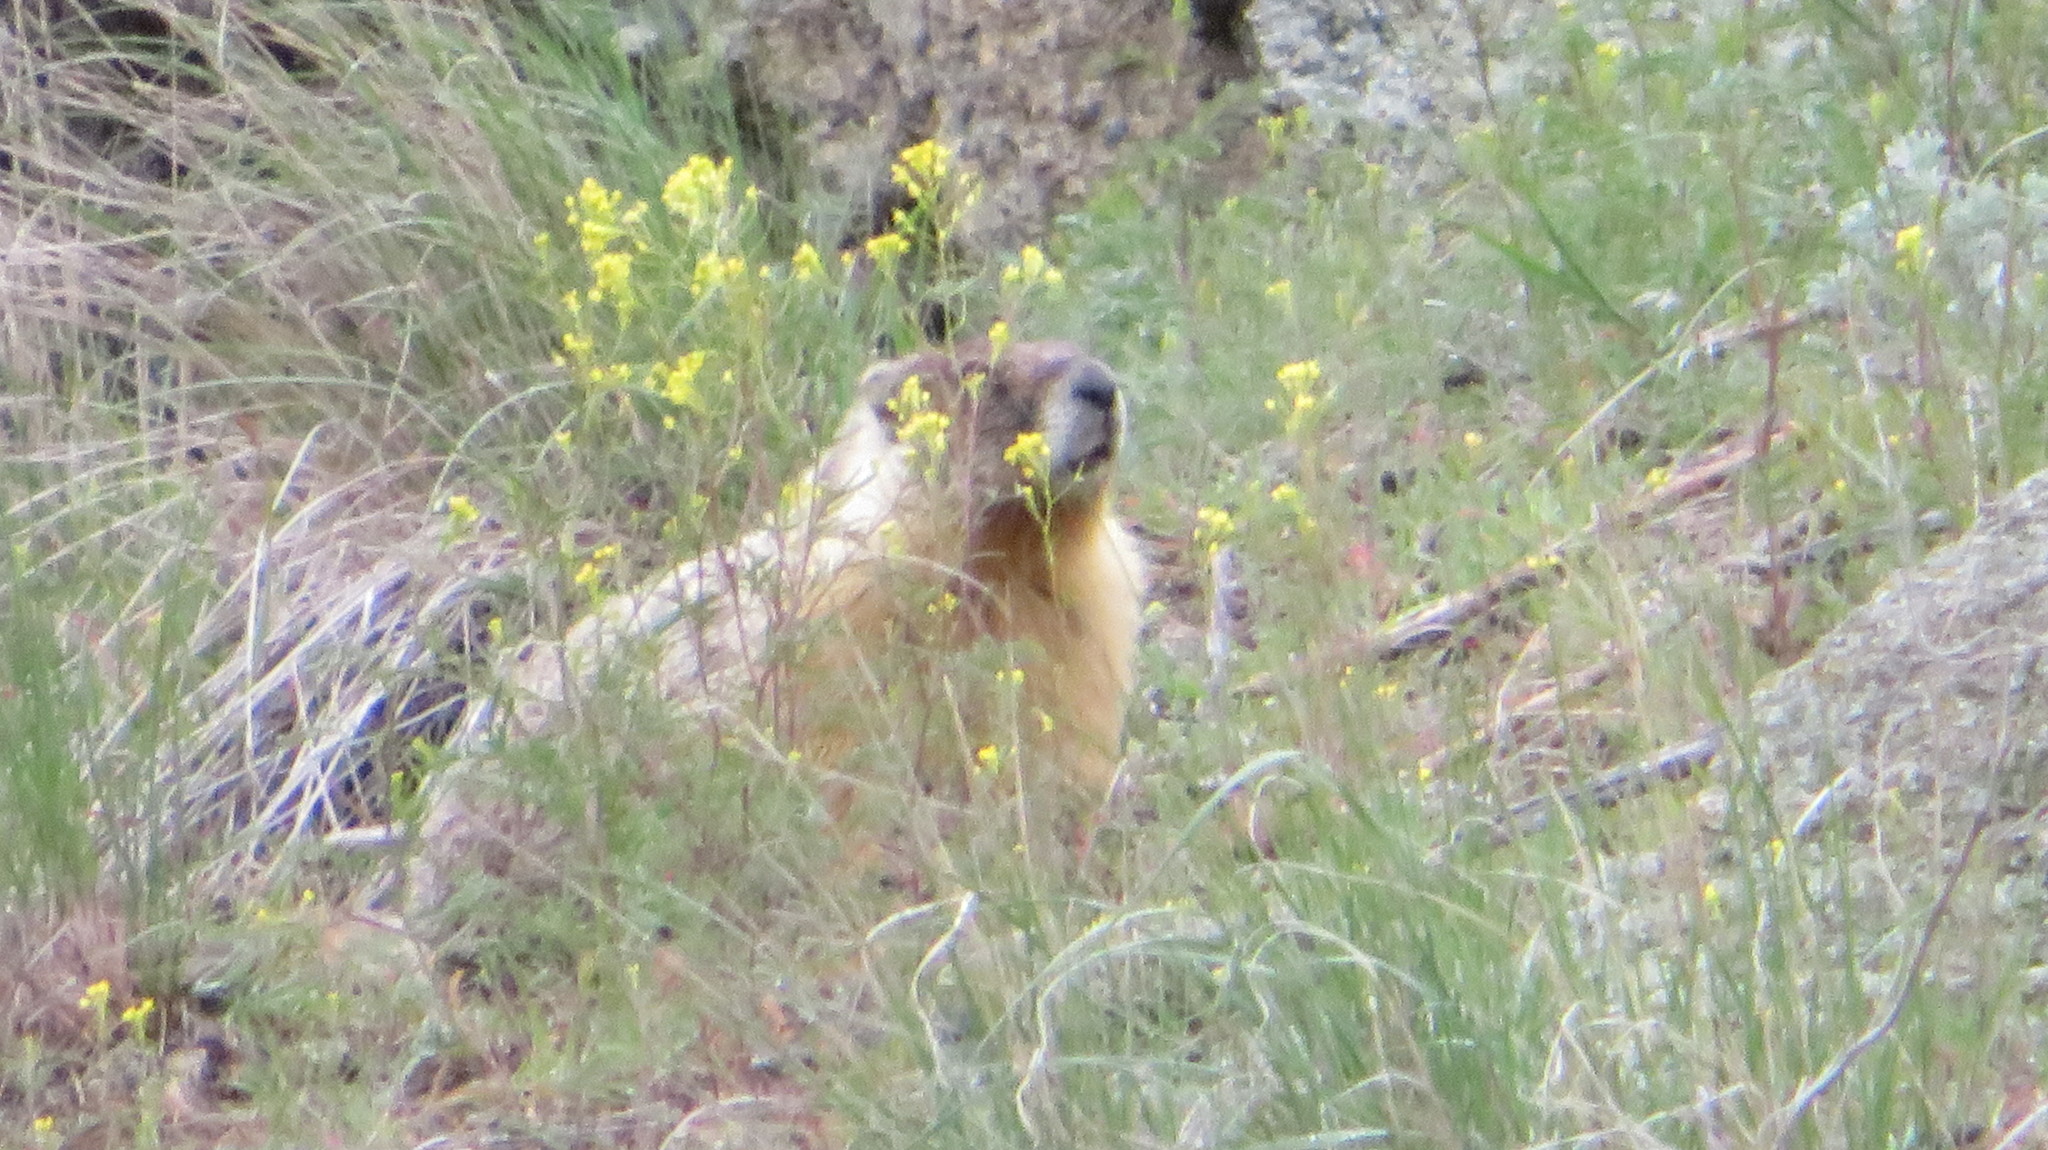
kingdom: Animalia
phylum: Chordata
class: Mammalia
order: Rodentia
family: Sciuridae
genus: Marmota
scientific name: Marmota flaviventris
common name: Yellow-bellied marmot
